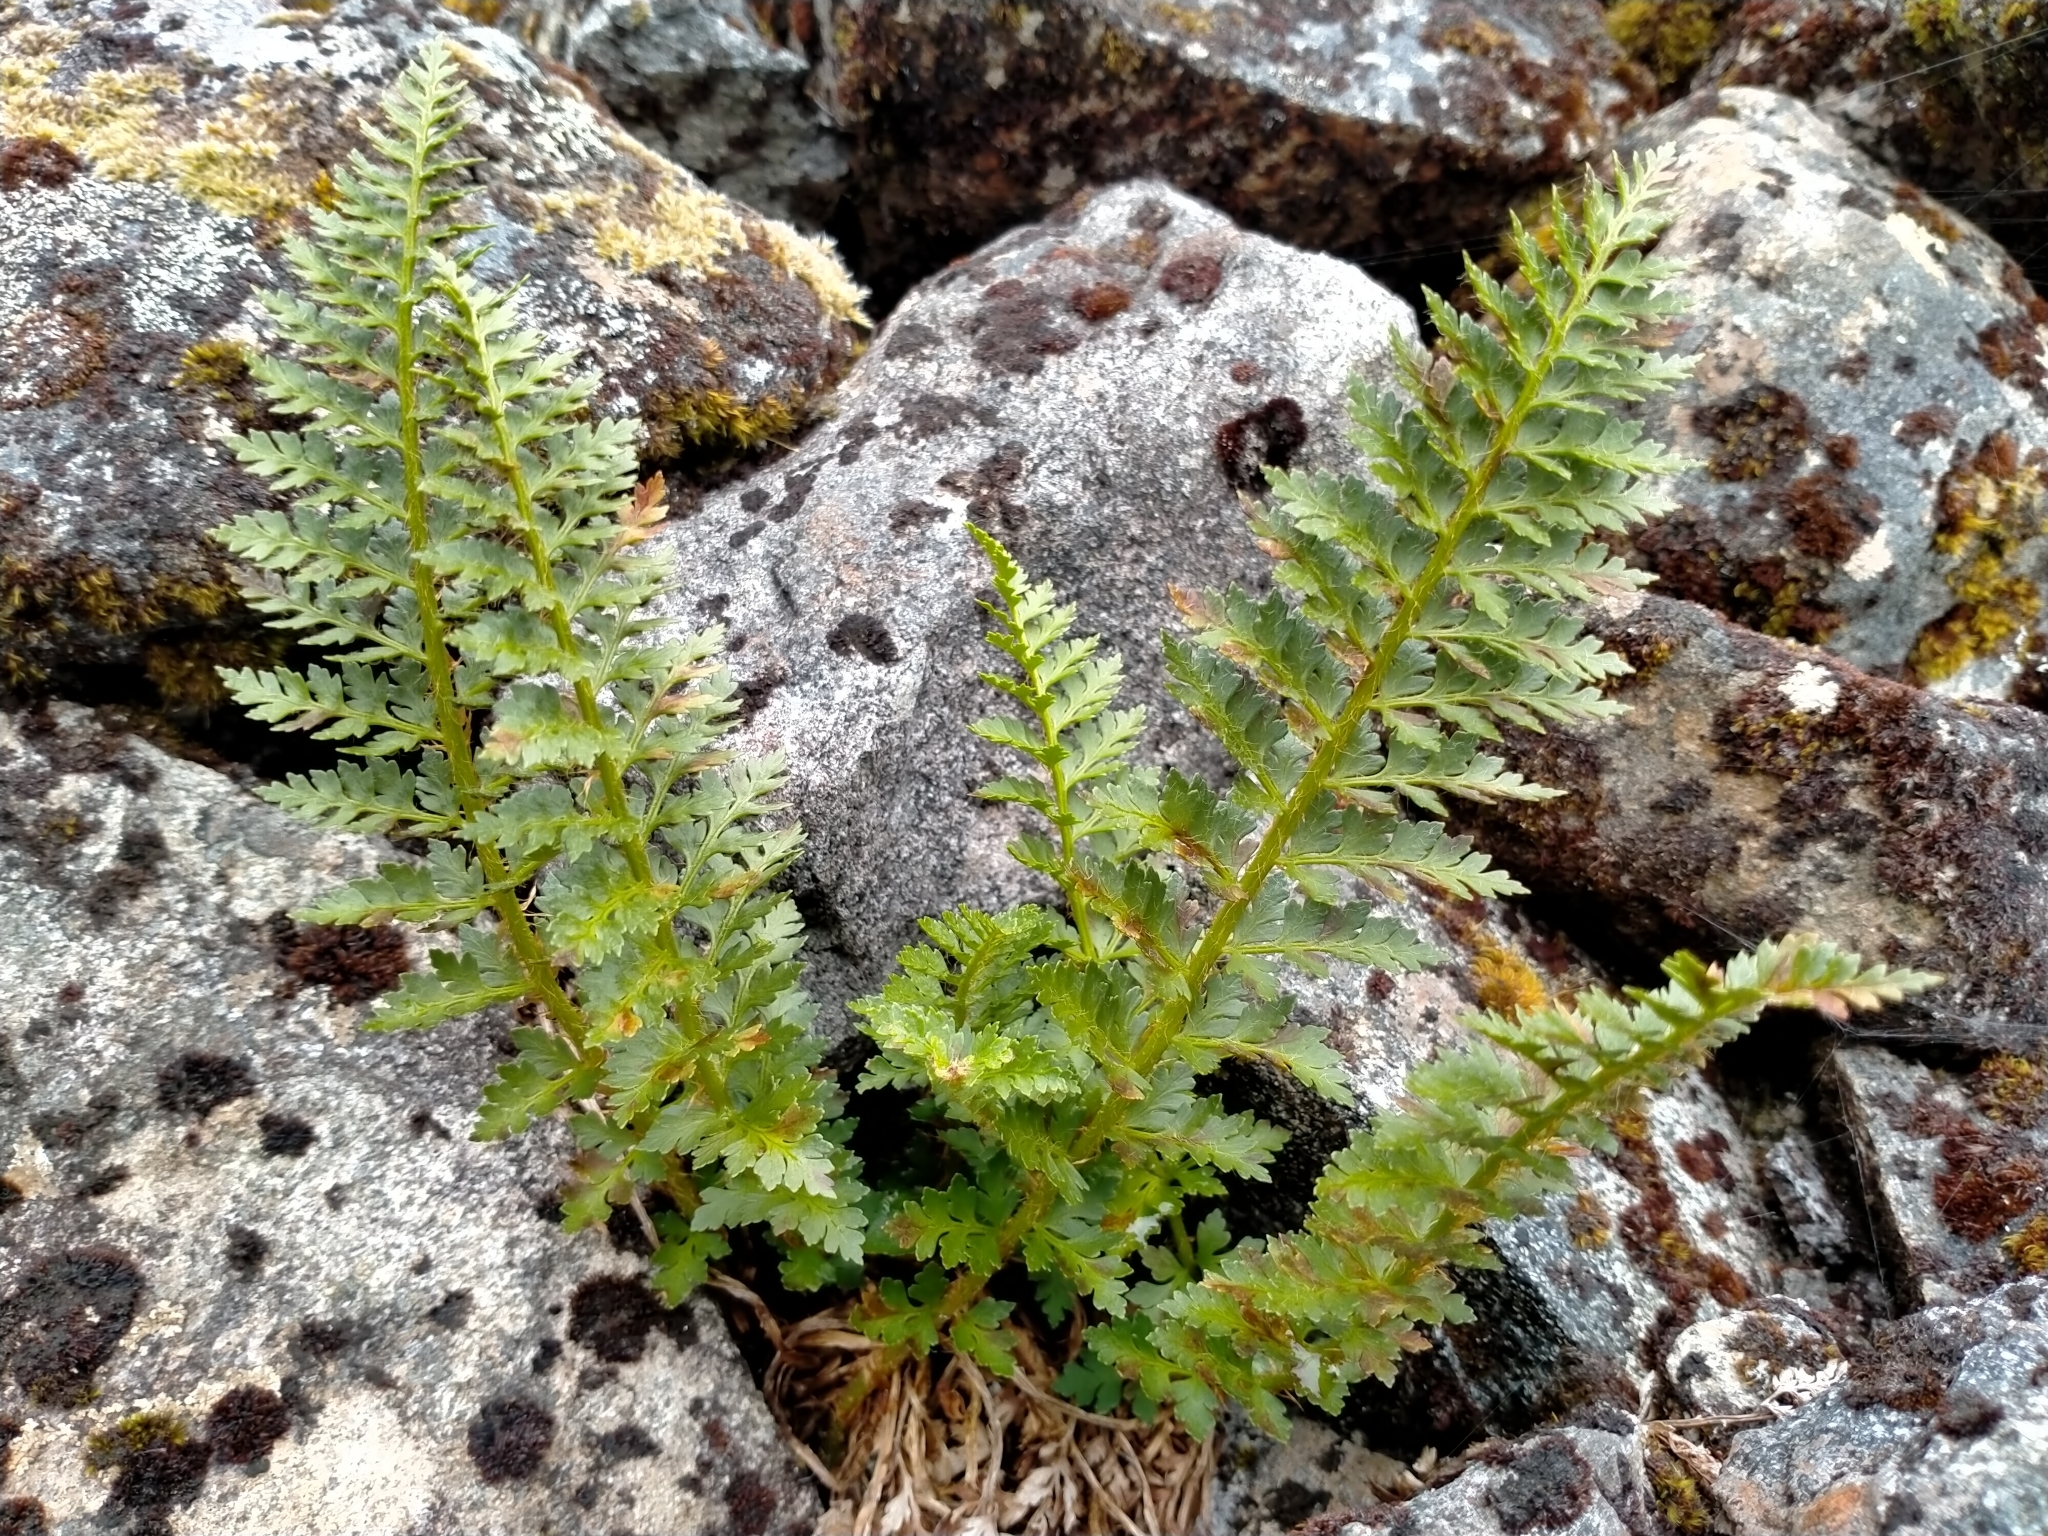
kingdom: Plantae
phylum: Tracheophyta
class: Polypodiopsida
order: Polypodiales
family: Dryopteridaceae
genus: Polystichum
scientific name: Polystichum cystostegia
